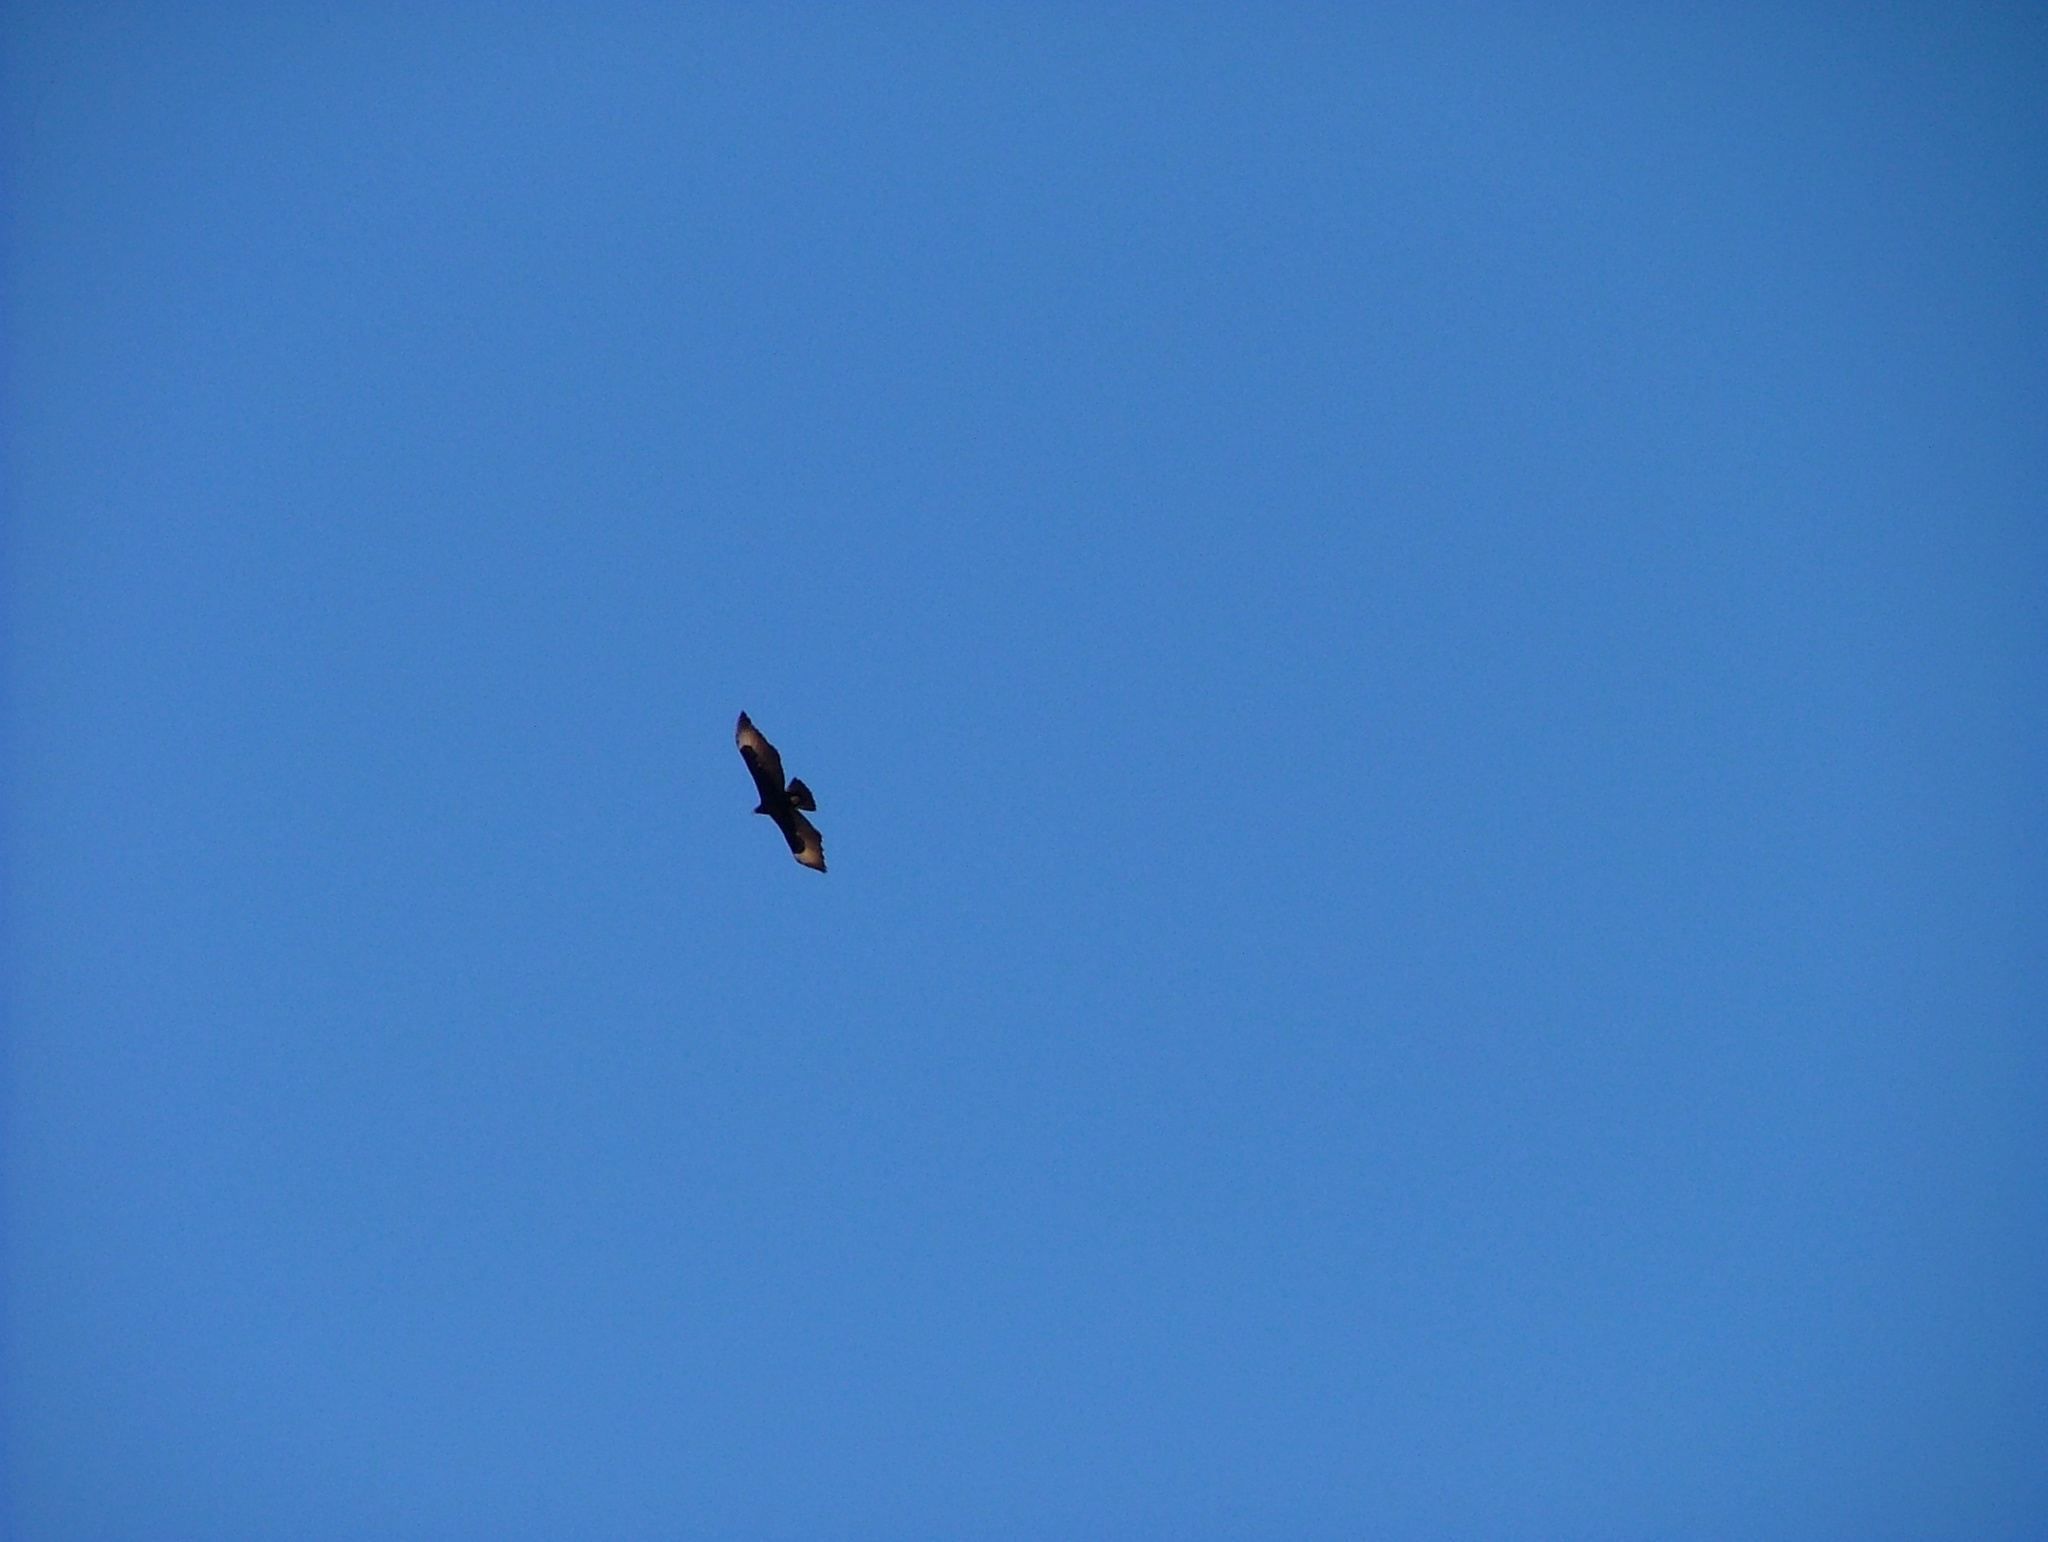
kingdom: Animalia
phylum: Chordata
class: Aves
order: Accipitriformes
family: Accipitridae
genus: Aquila
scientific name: Aquila verreauxii
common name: Verreaux's eagle
